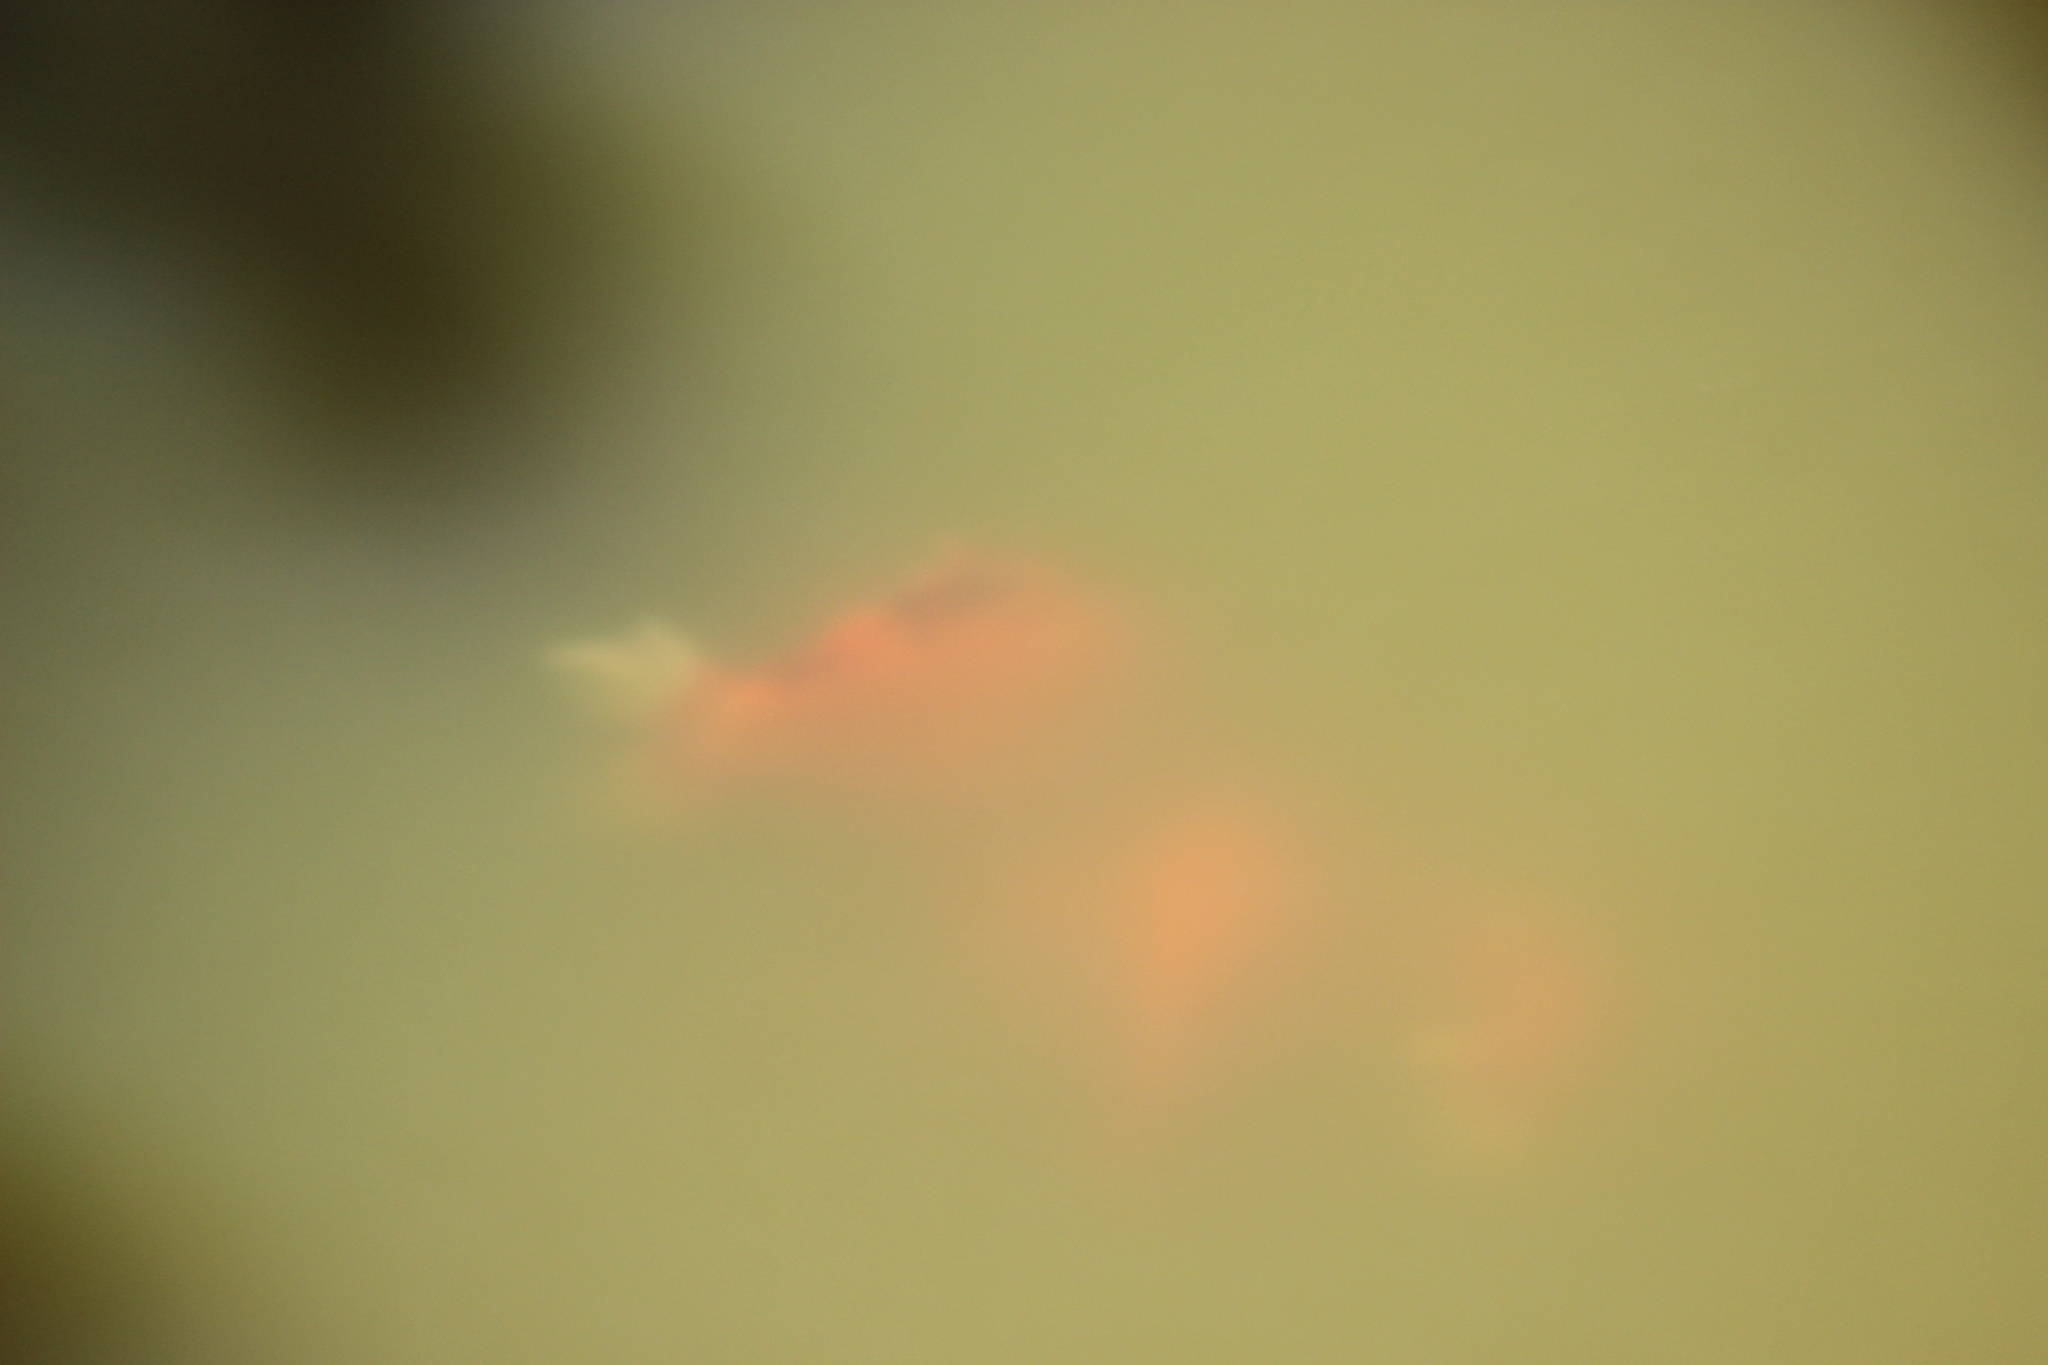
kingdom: Animalia
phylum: Chordata
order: Cypriniformes
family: Cyprinidae
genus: Carassius
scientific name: Carassius auratus
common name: Goldfish
